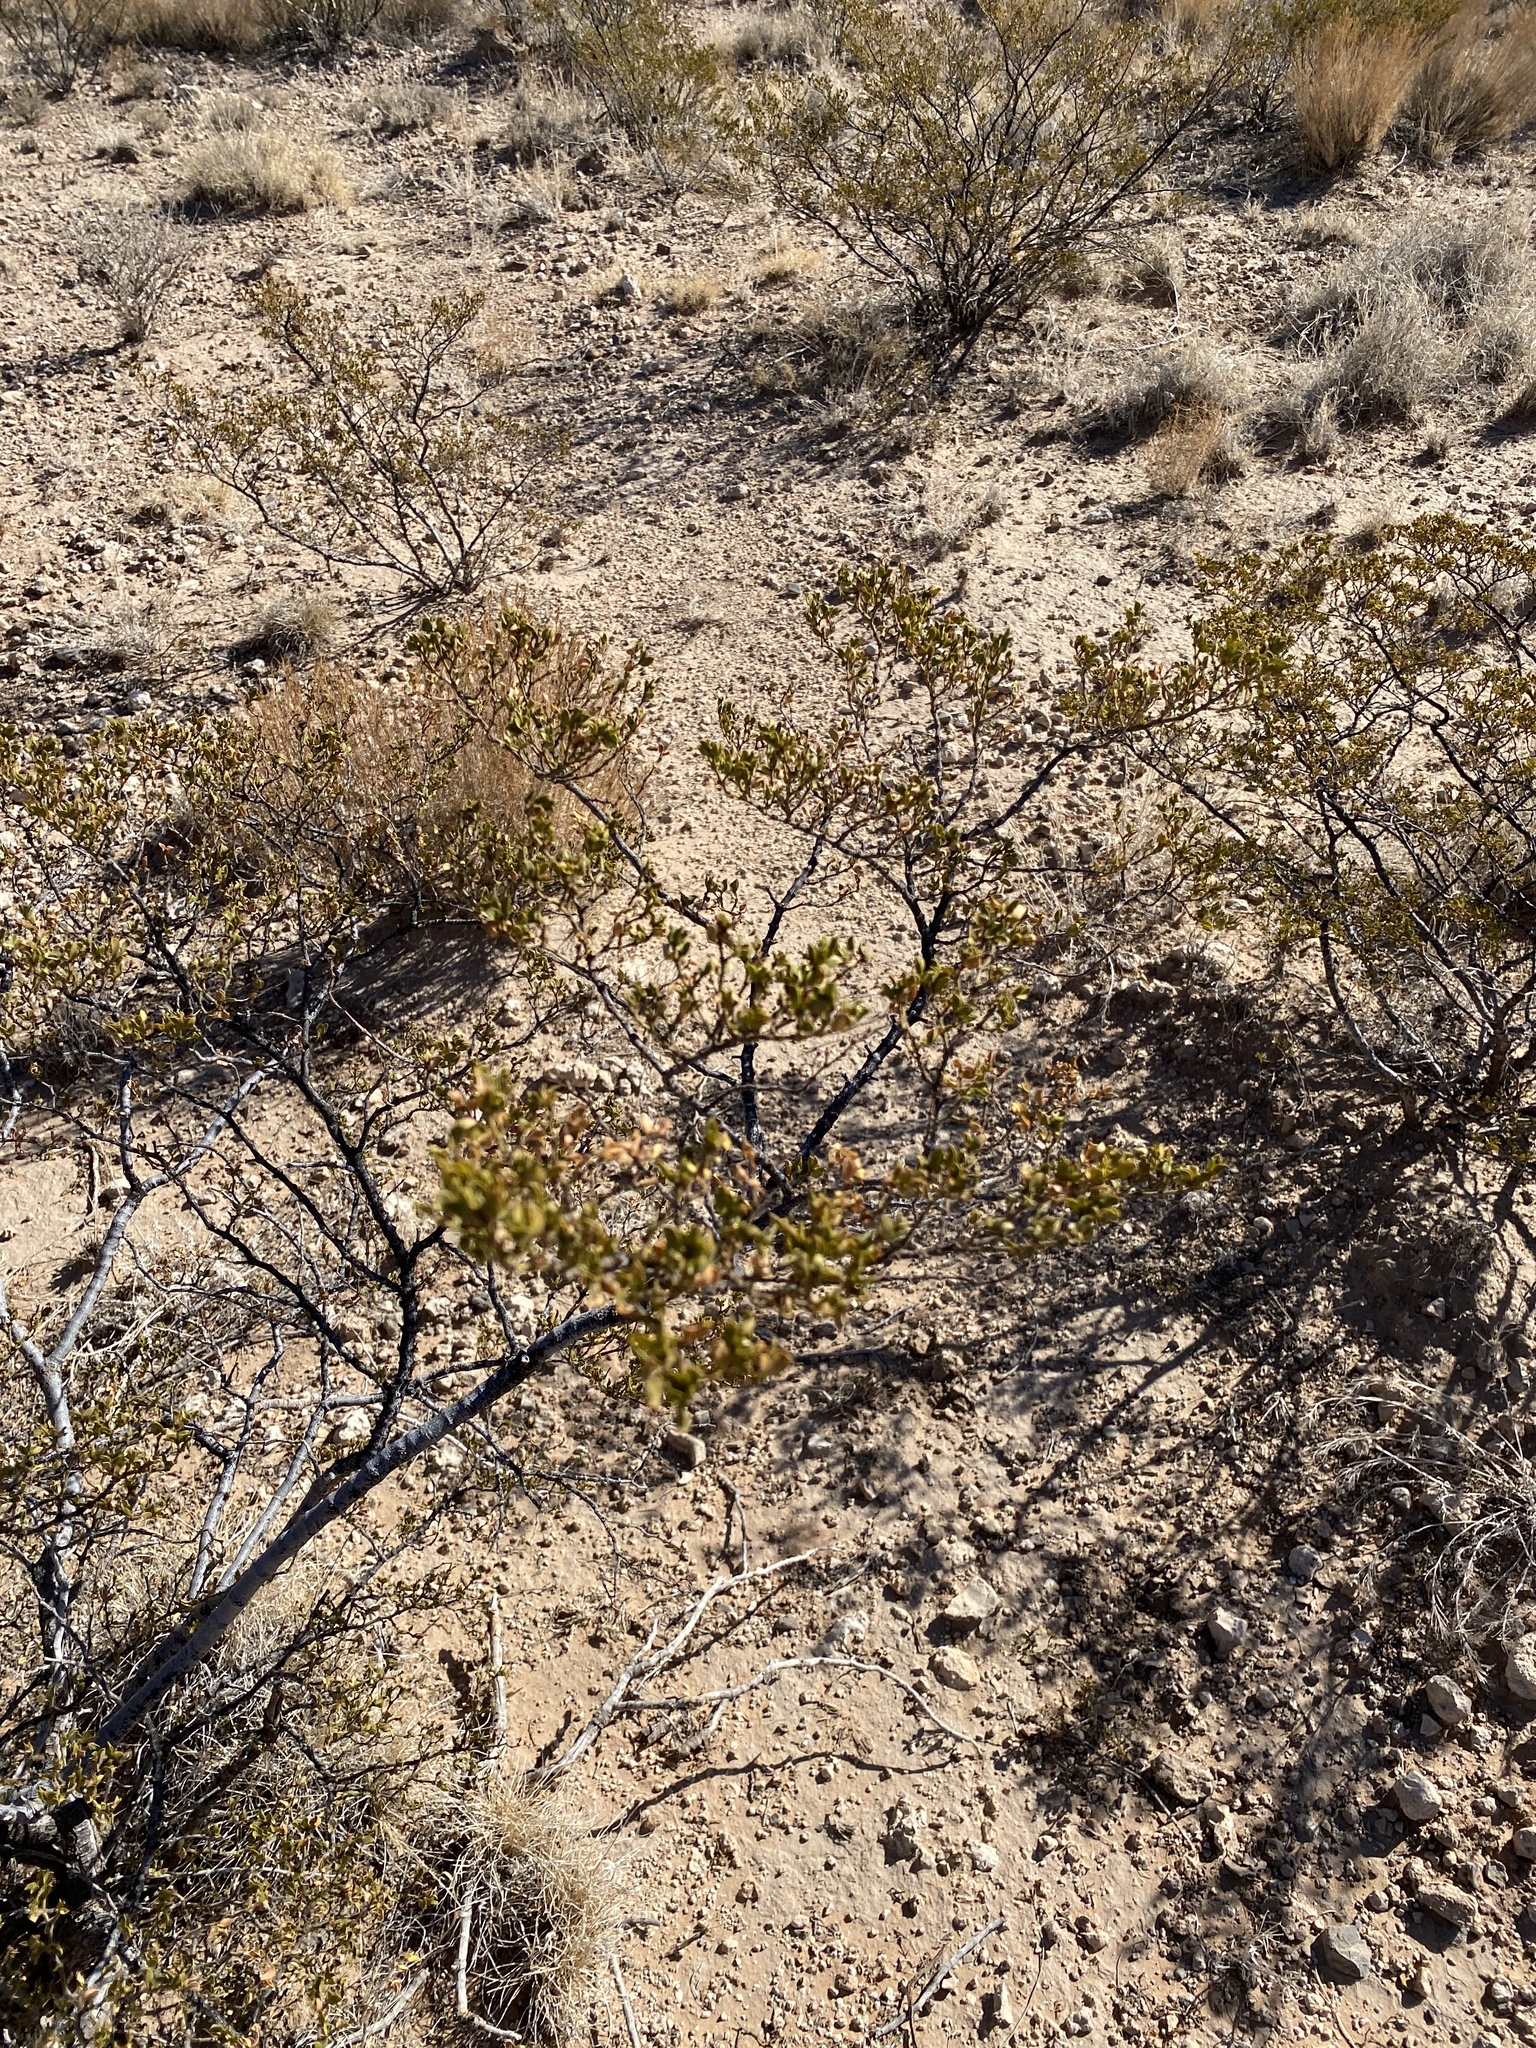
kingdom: Plantae
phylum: Tracheophyta
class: Magnoliopsida
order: Zygophyllales
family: Zygophyllaceae
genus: Larrea
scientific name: Larrea tridentata
